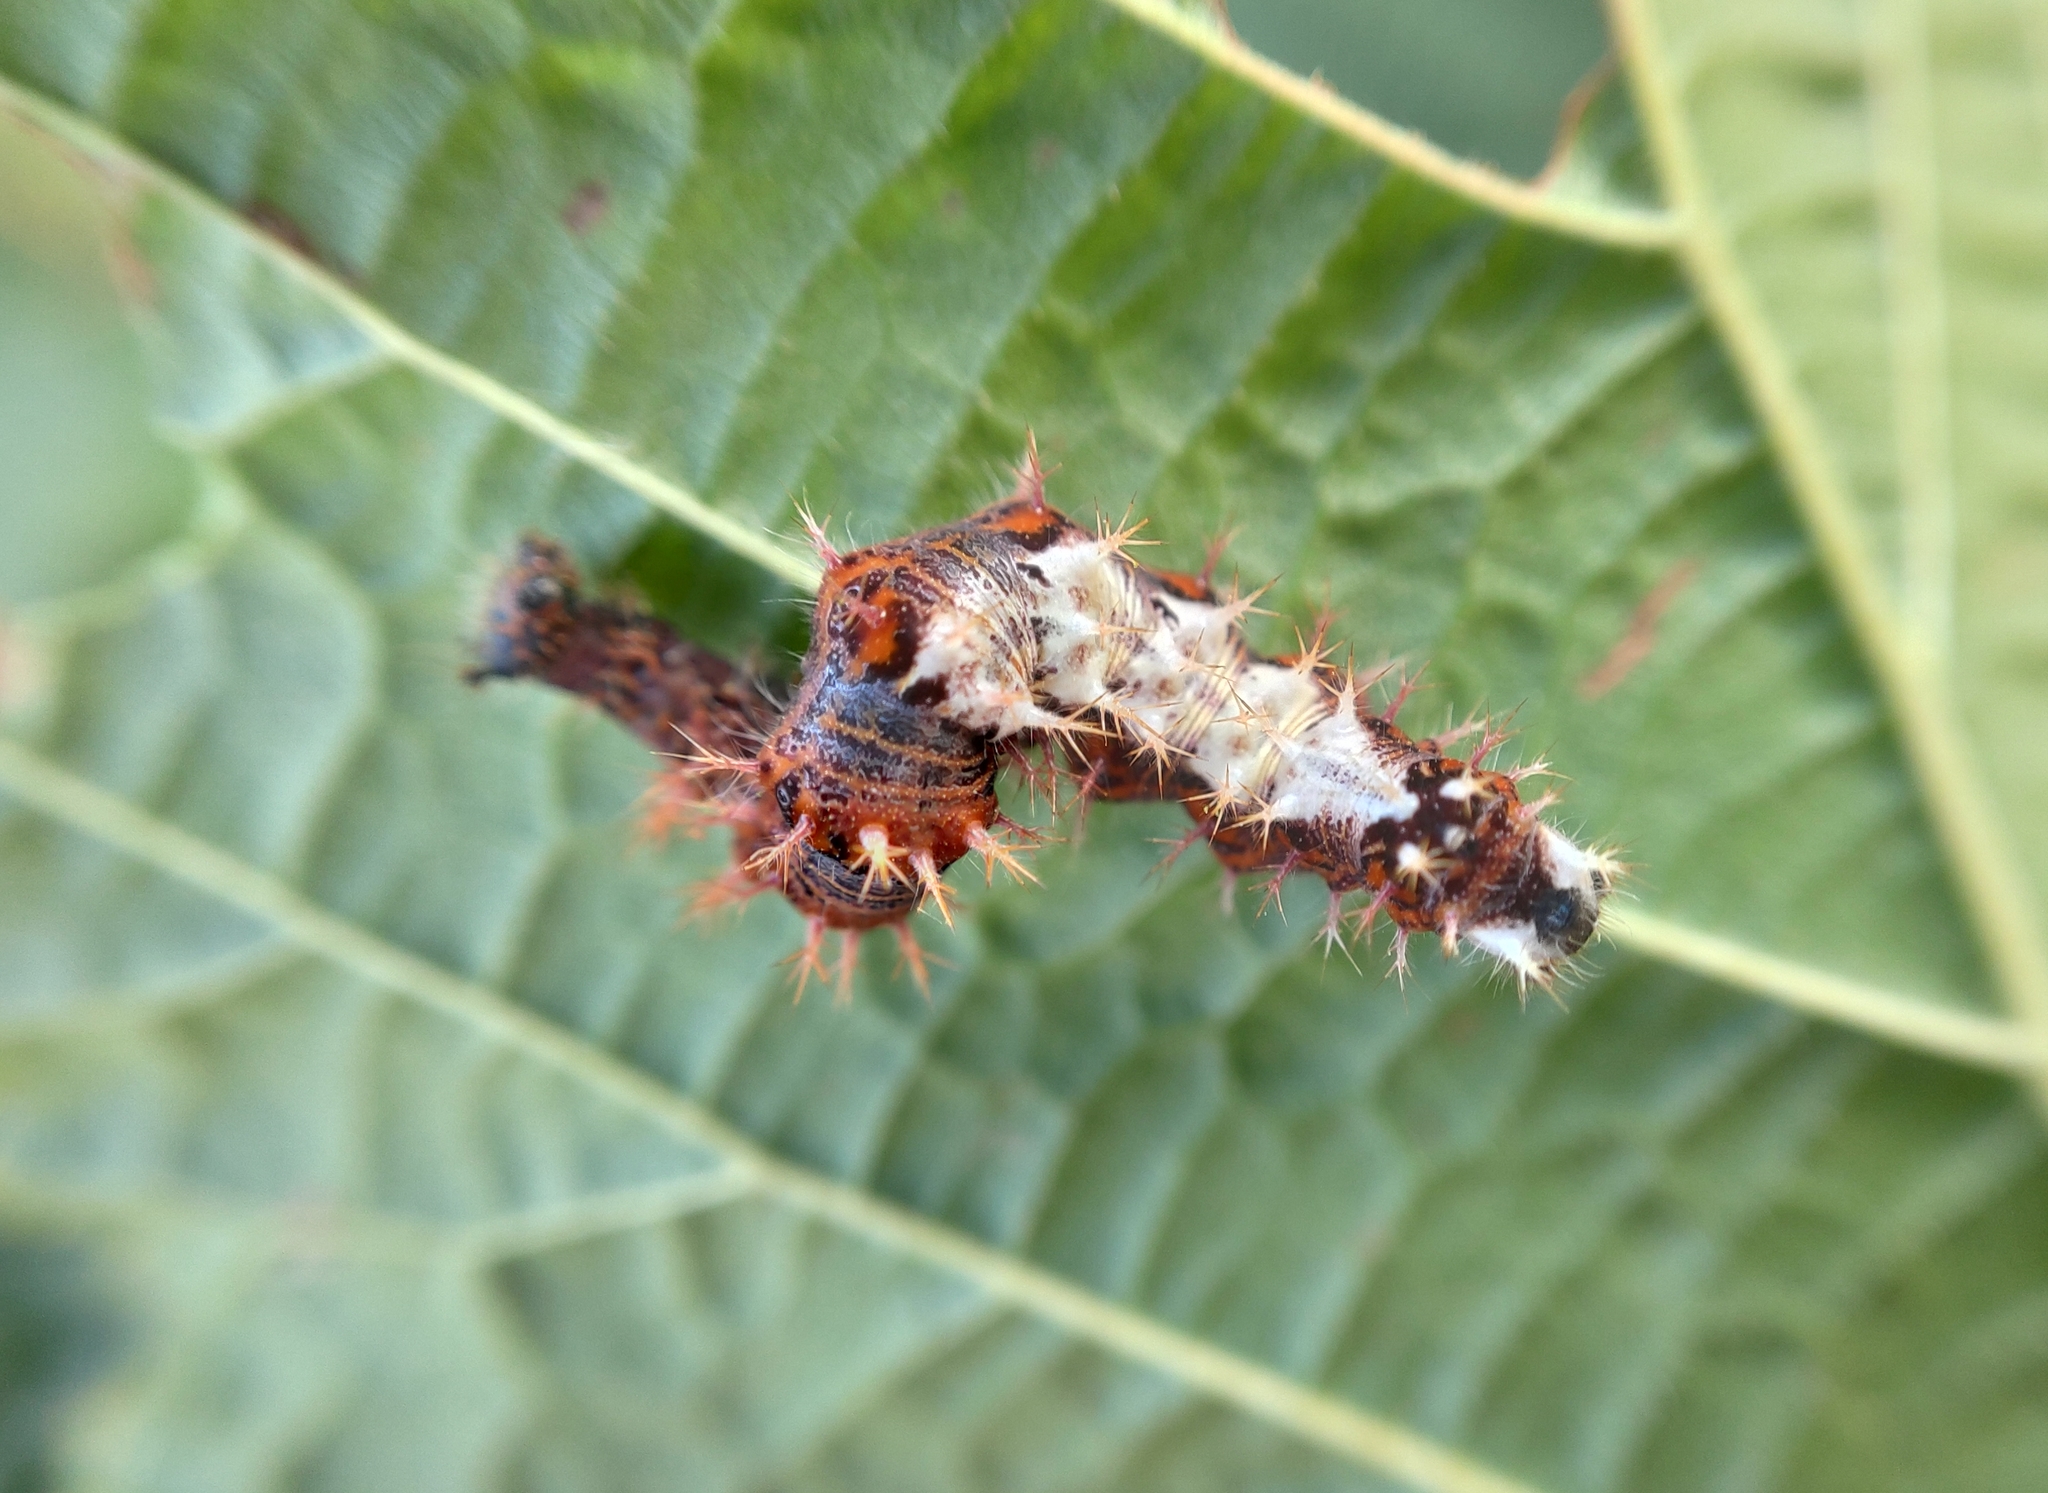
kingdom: Animalia
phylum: Arthropoda
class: Insecta
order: Lepidoptera
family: Nymphalidae
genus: Polygonia
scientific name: Polygonia c-album
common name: Comma
